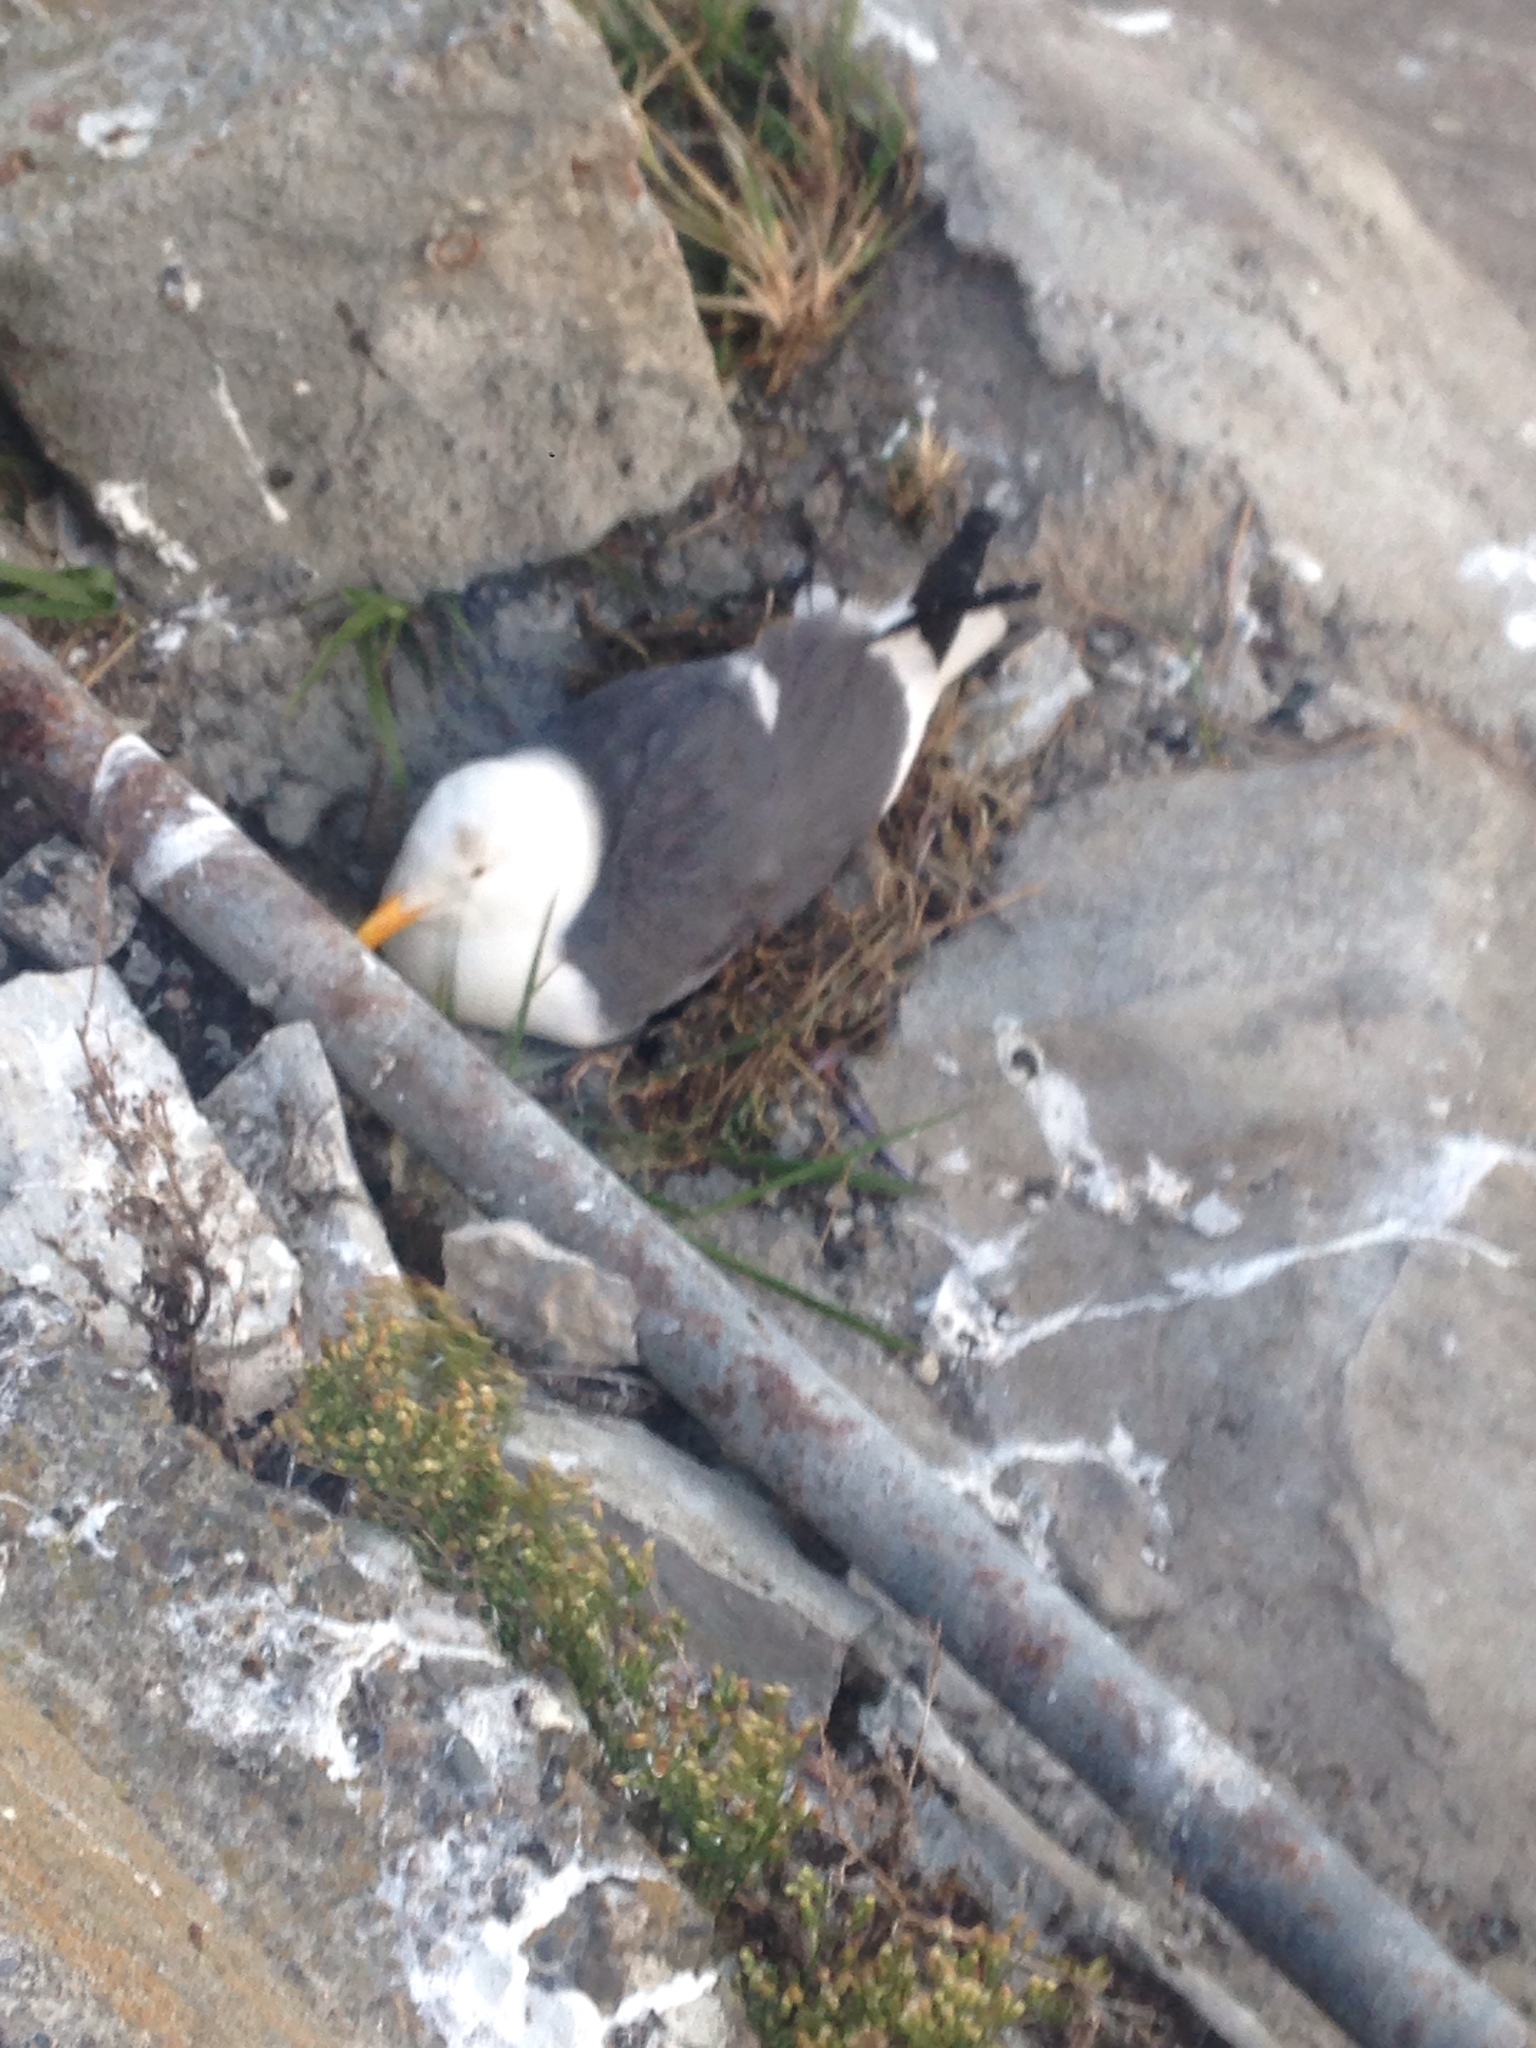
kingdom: Animalia
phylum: Chordata
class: Aves
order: Charadriiformes
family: Laridae
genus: Larus
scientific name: Larus occidentalis
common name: Western gull
